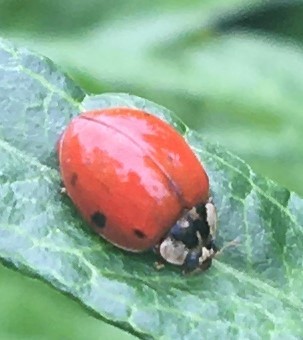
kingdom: Animalia
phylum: Arthropoda
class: Insecta
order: Coleoptera
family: Coccinellidae
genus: Harmonia
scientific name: Harmonia axyridis
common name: Harlequin ladybird
